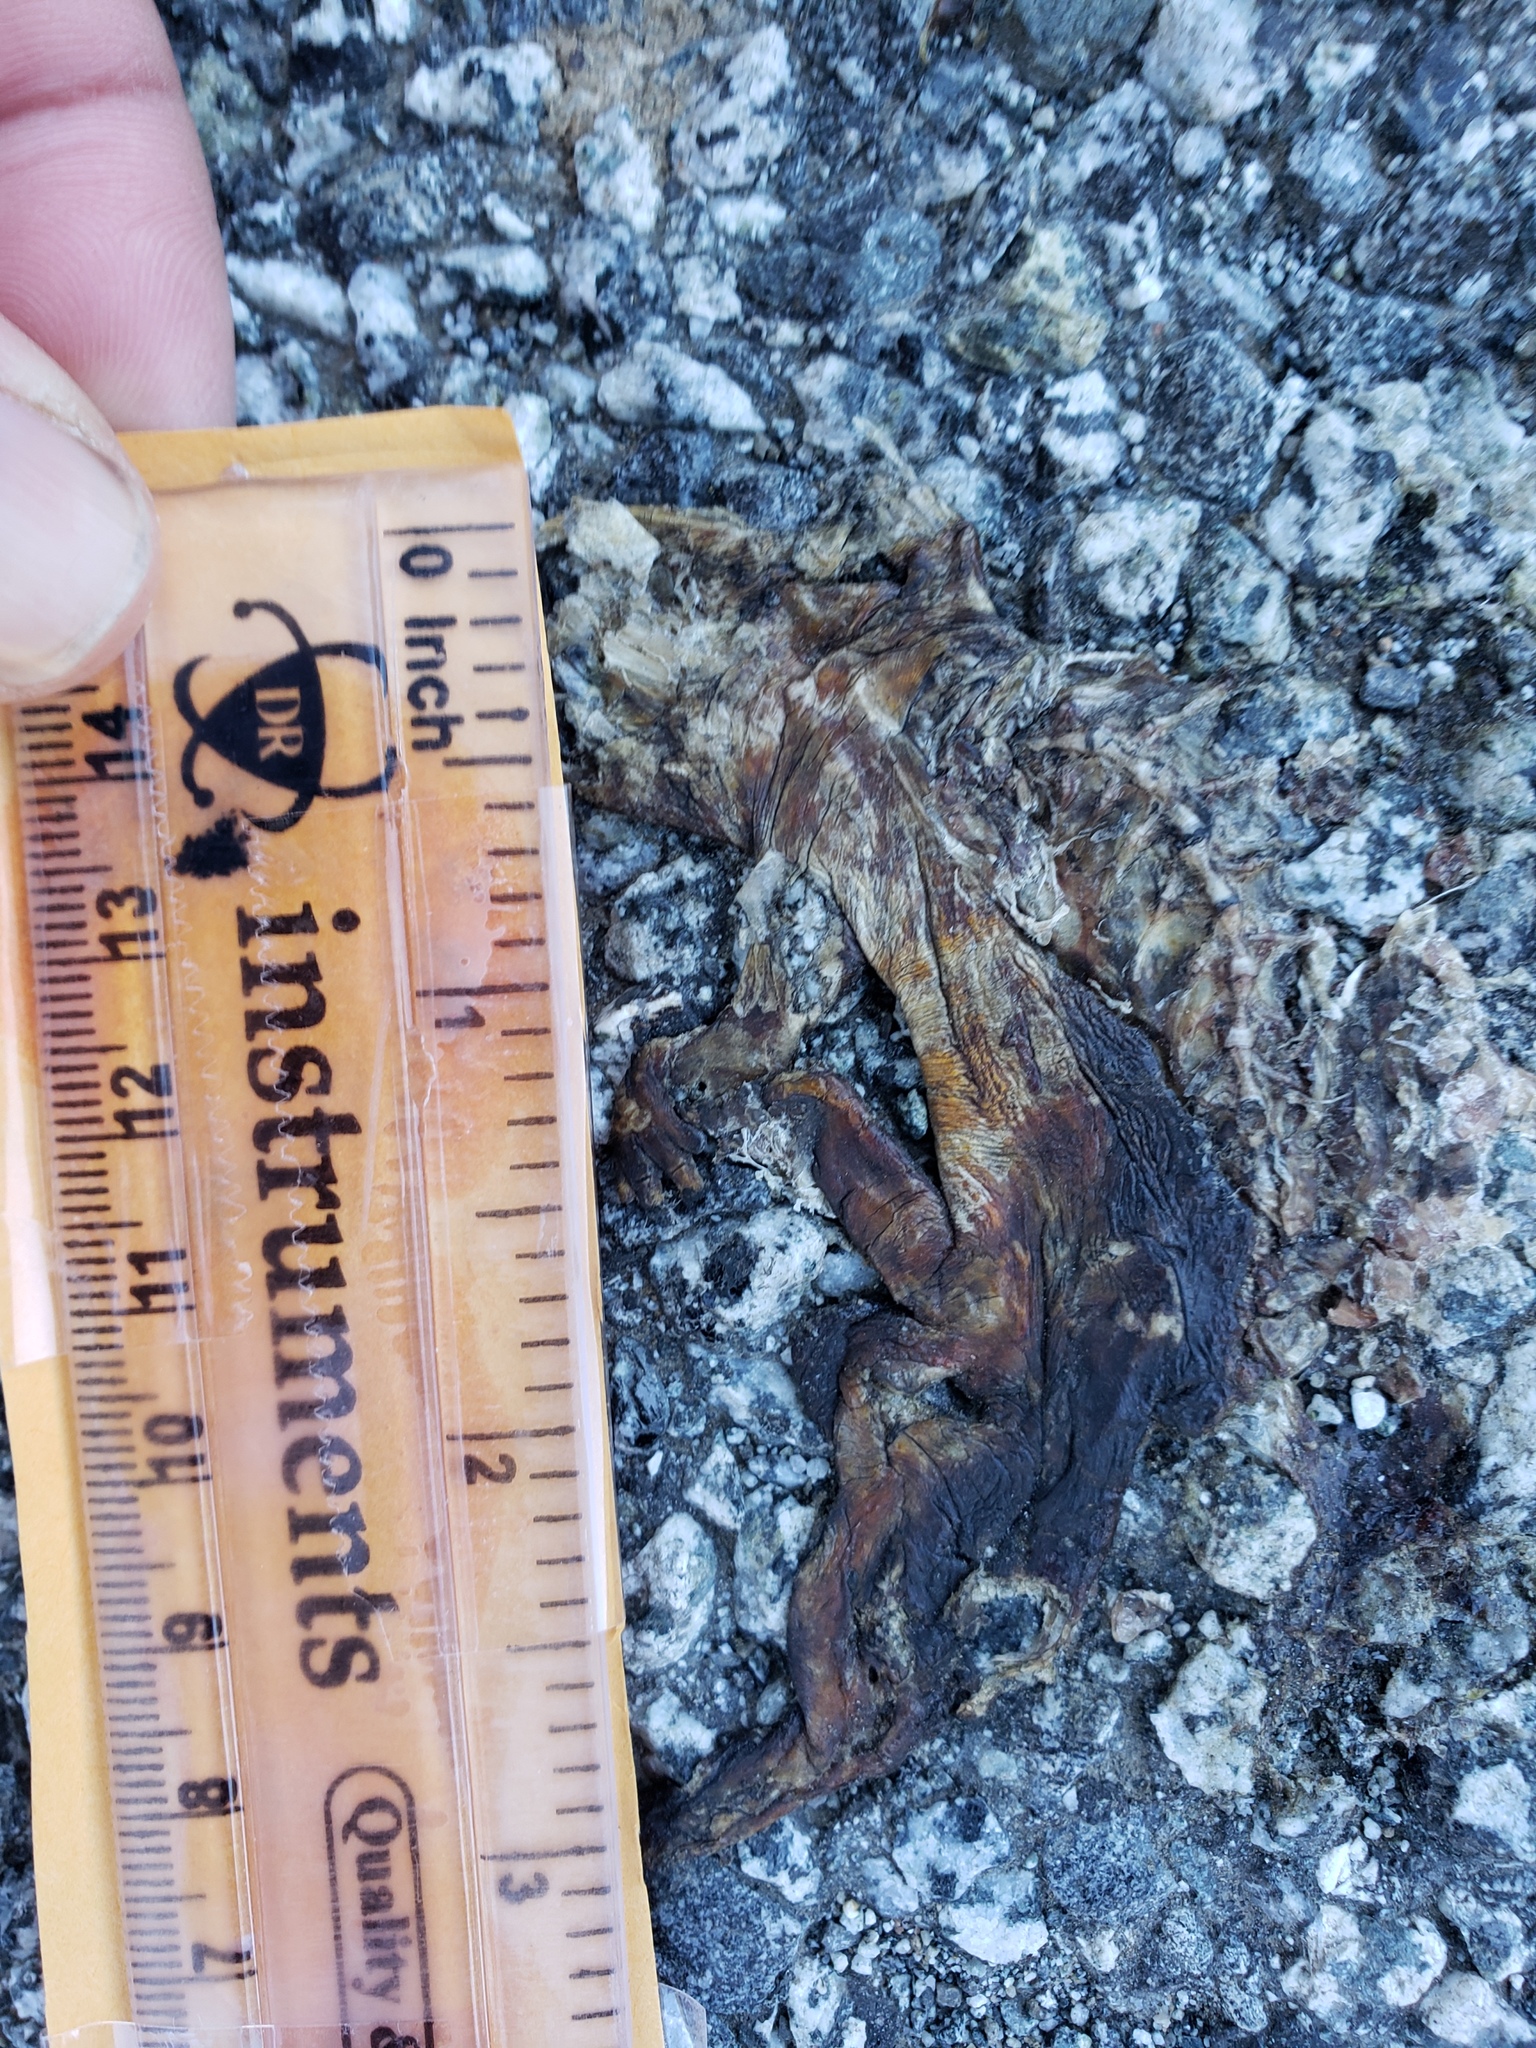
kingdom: Animalia
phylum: Chordata
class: Amphibia
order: Caudata
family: Salamandridae
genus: Taricha
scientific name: Taricha
